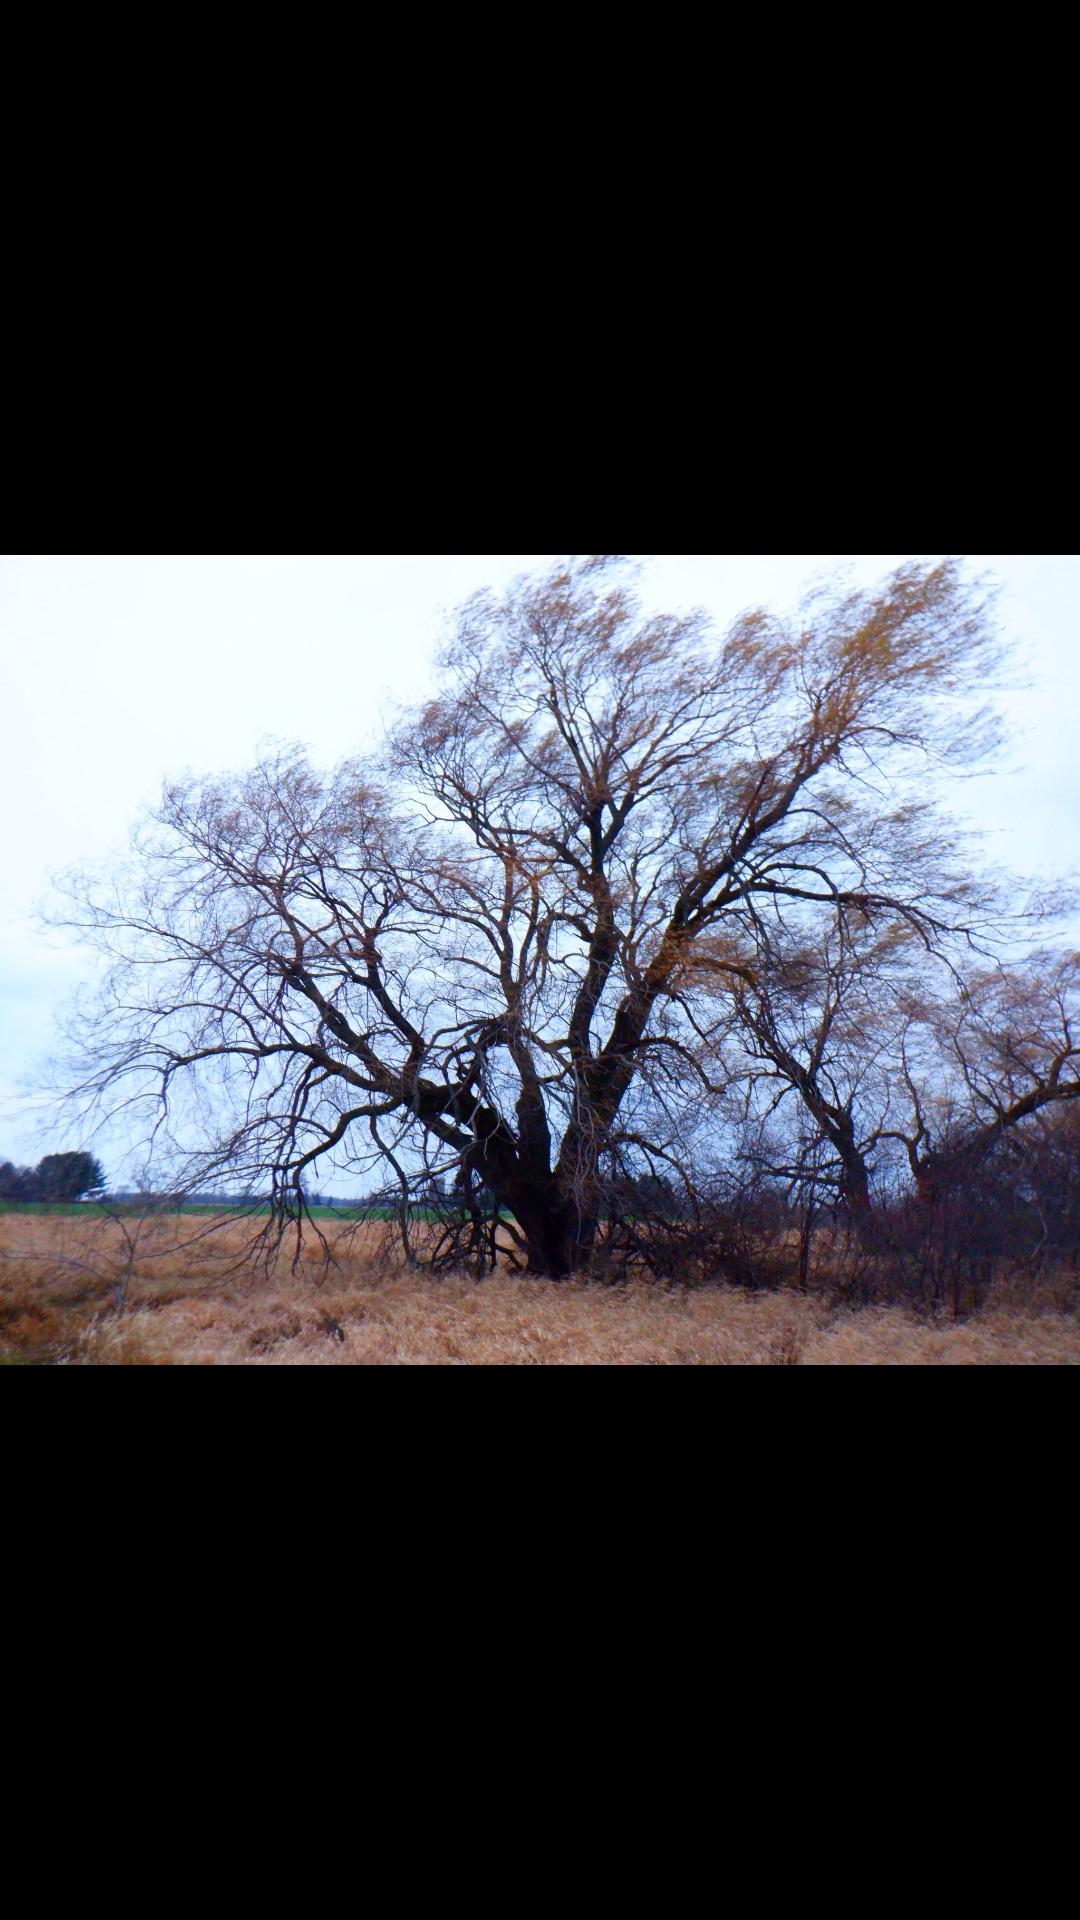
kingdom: Plantae
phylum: Tracheophyta
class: Magnoliopsida
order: Fagales
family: Fagaceae
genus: Quercus
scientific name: Quercus macrocarpa
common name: Bur oak
